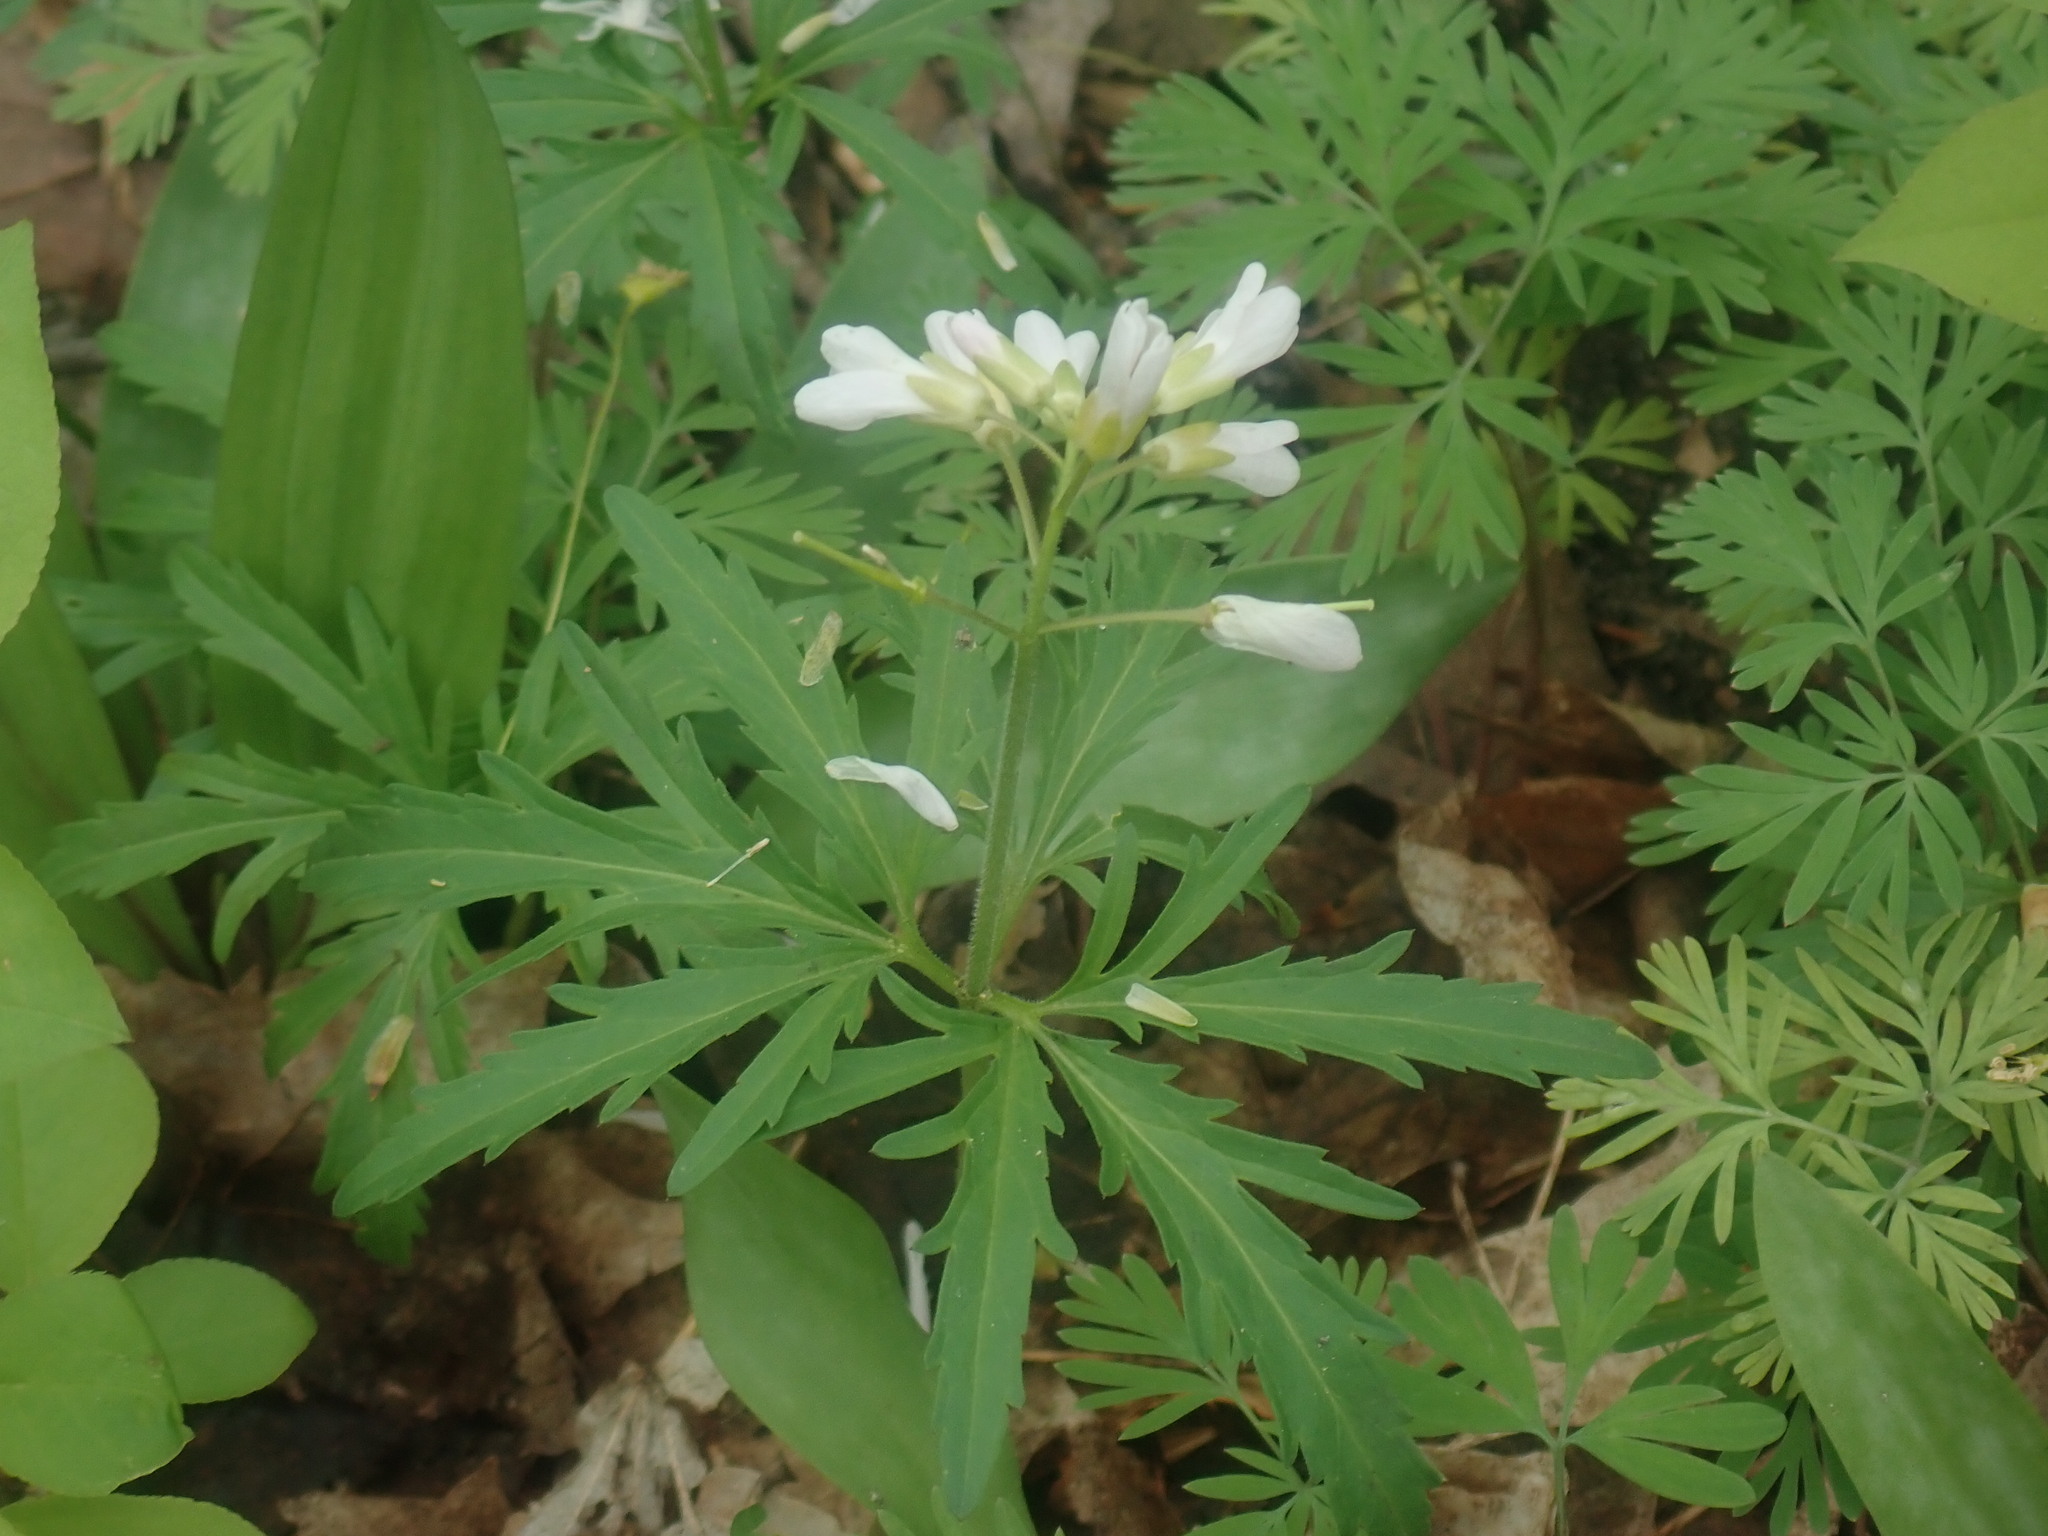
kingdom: Plantae
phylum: Tracheophyta
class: Magnoliopsida
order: Brassicales
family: Brassicaceae
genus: Cardamine
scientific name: Cardamine concatenata
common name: Cut-leaf toothcup
